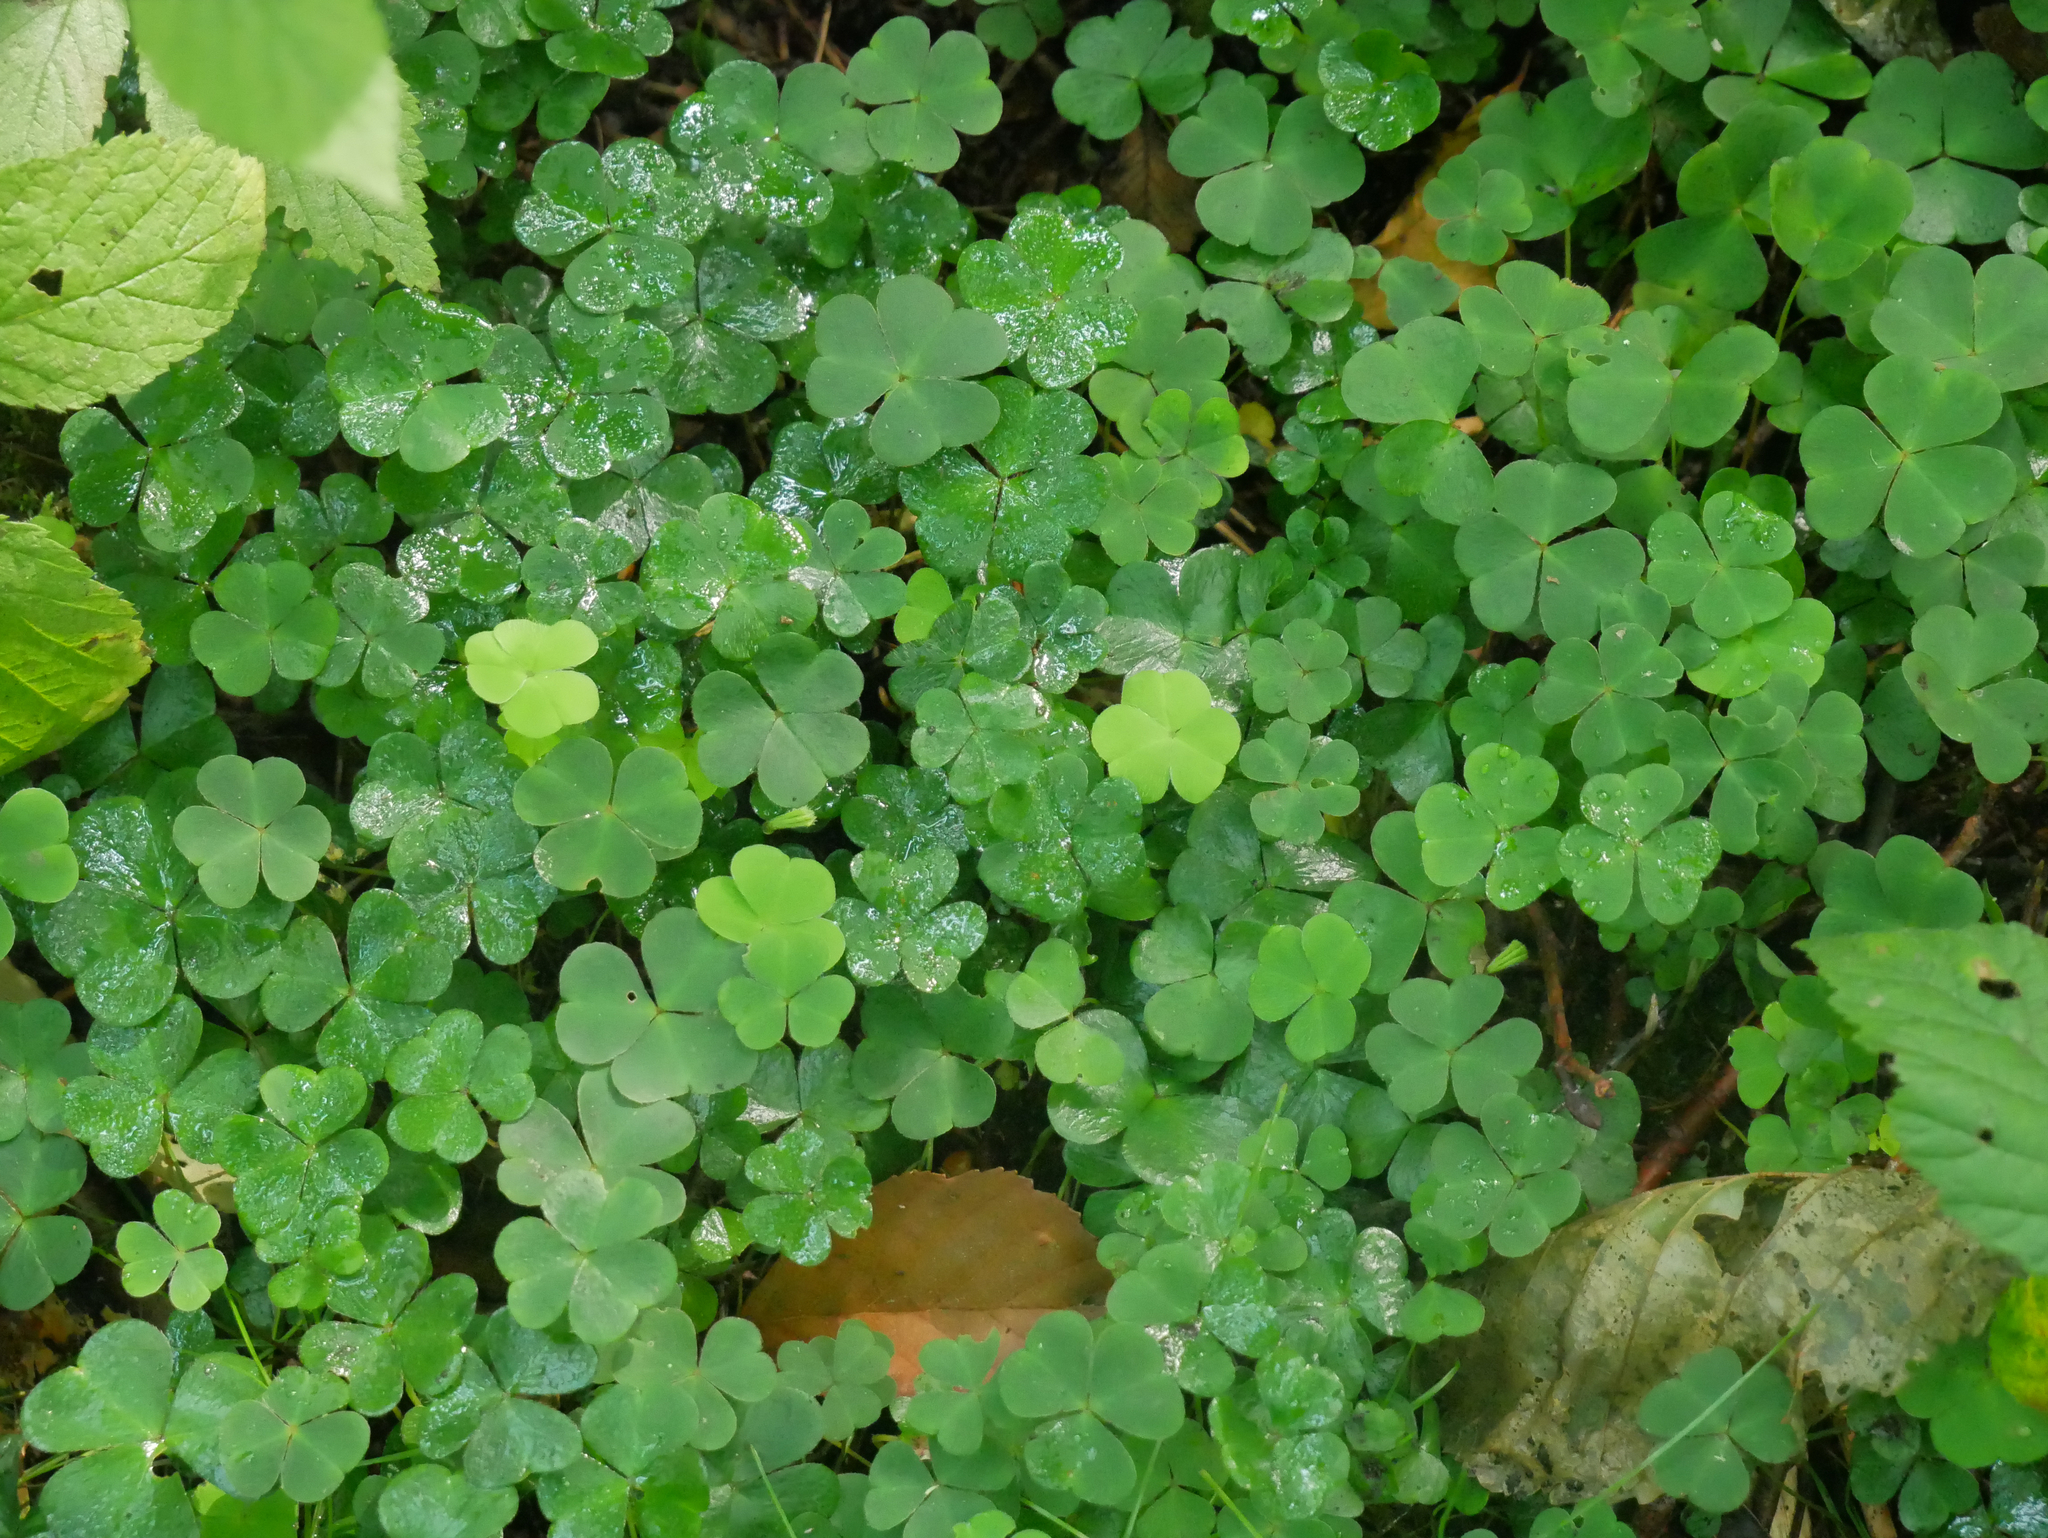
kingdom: Plantae
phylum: Tracheophyta
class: Magnoliopsida
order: Oxalidales
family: Oxalidaceae
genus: Oxalis
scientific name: Oxalis acetosella
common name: Wood-sorrel
